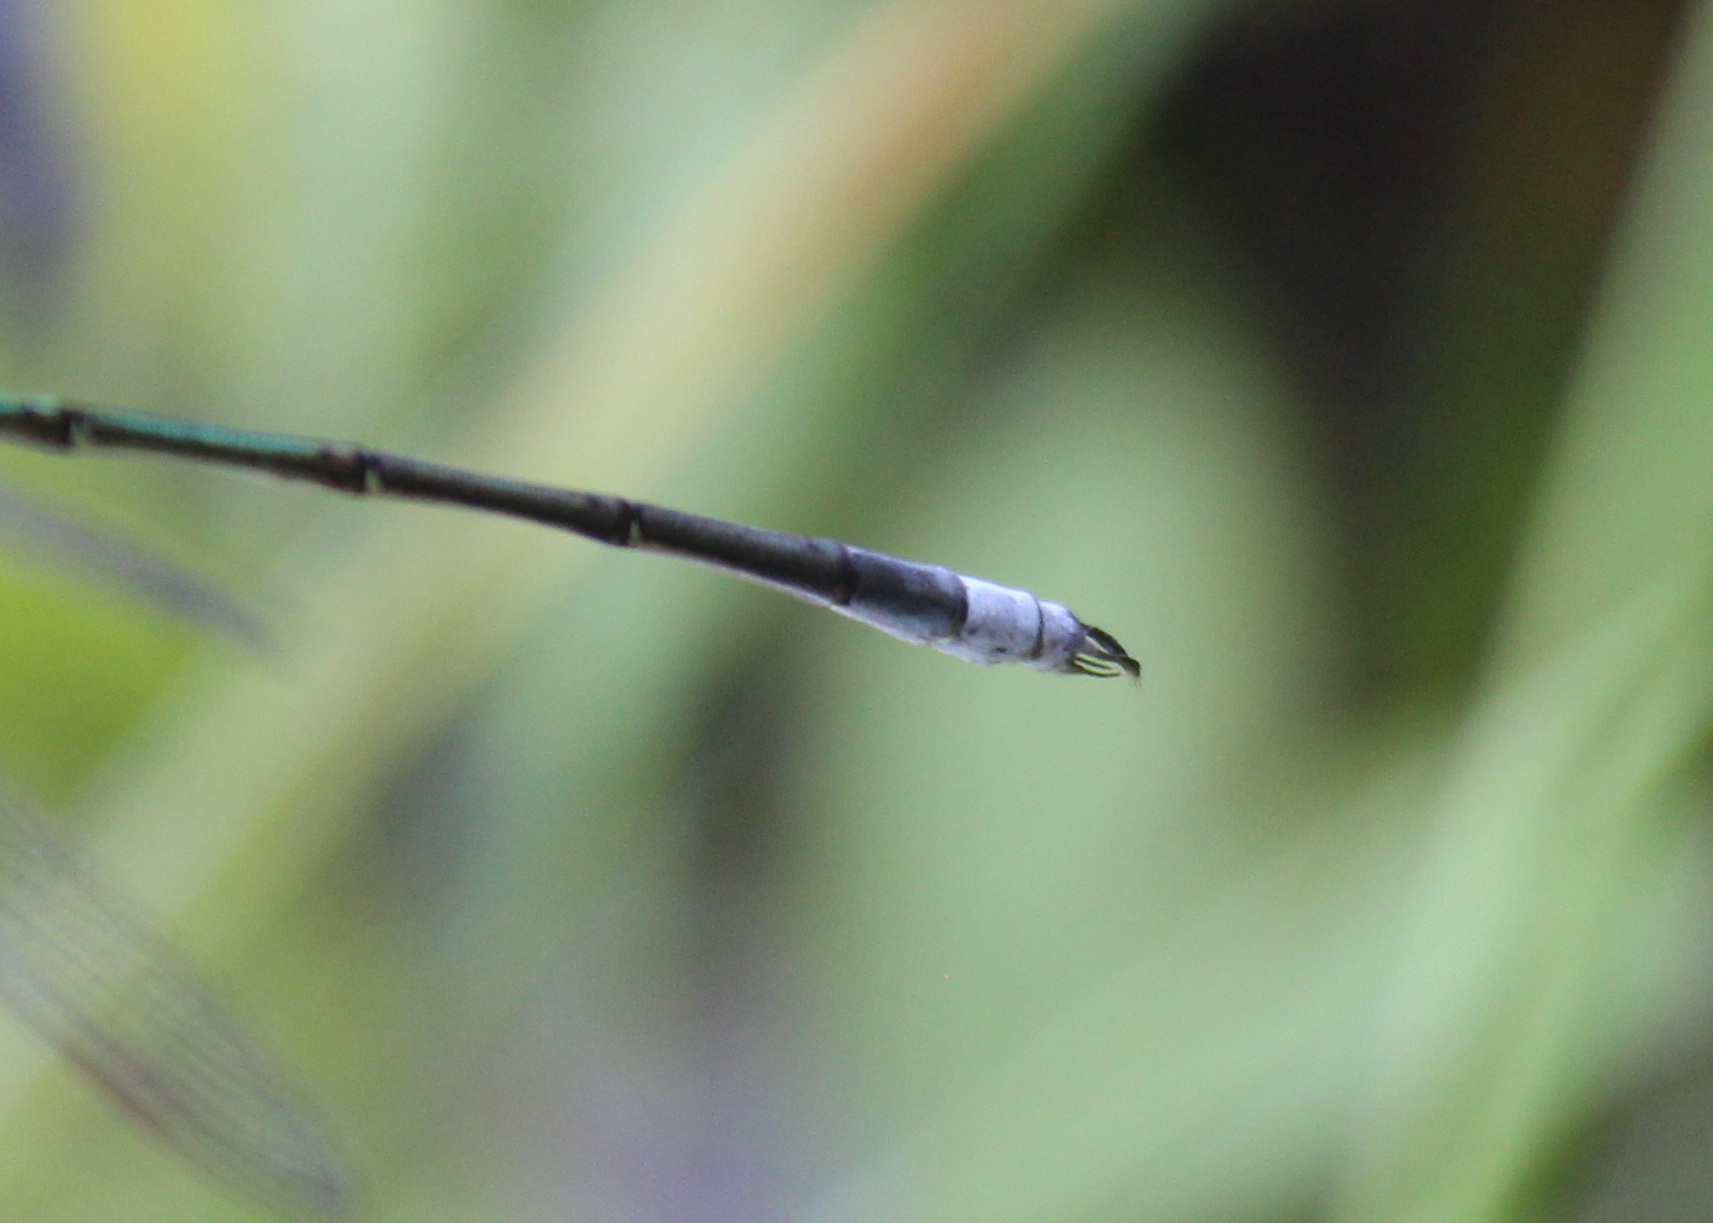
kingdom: Animalia
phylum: Arthropoda
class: Insecta
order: Odonata
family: Lestidae
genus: Lestes
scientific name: Lestes vigilax
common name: Swamp spreadwing
